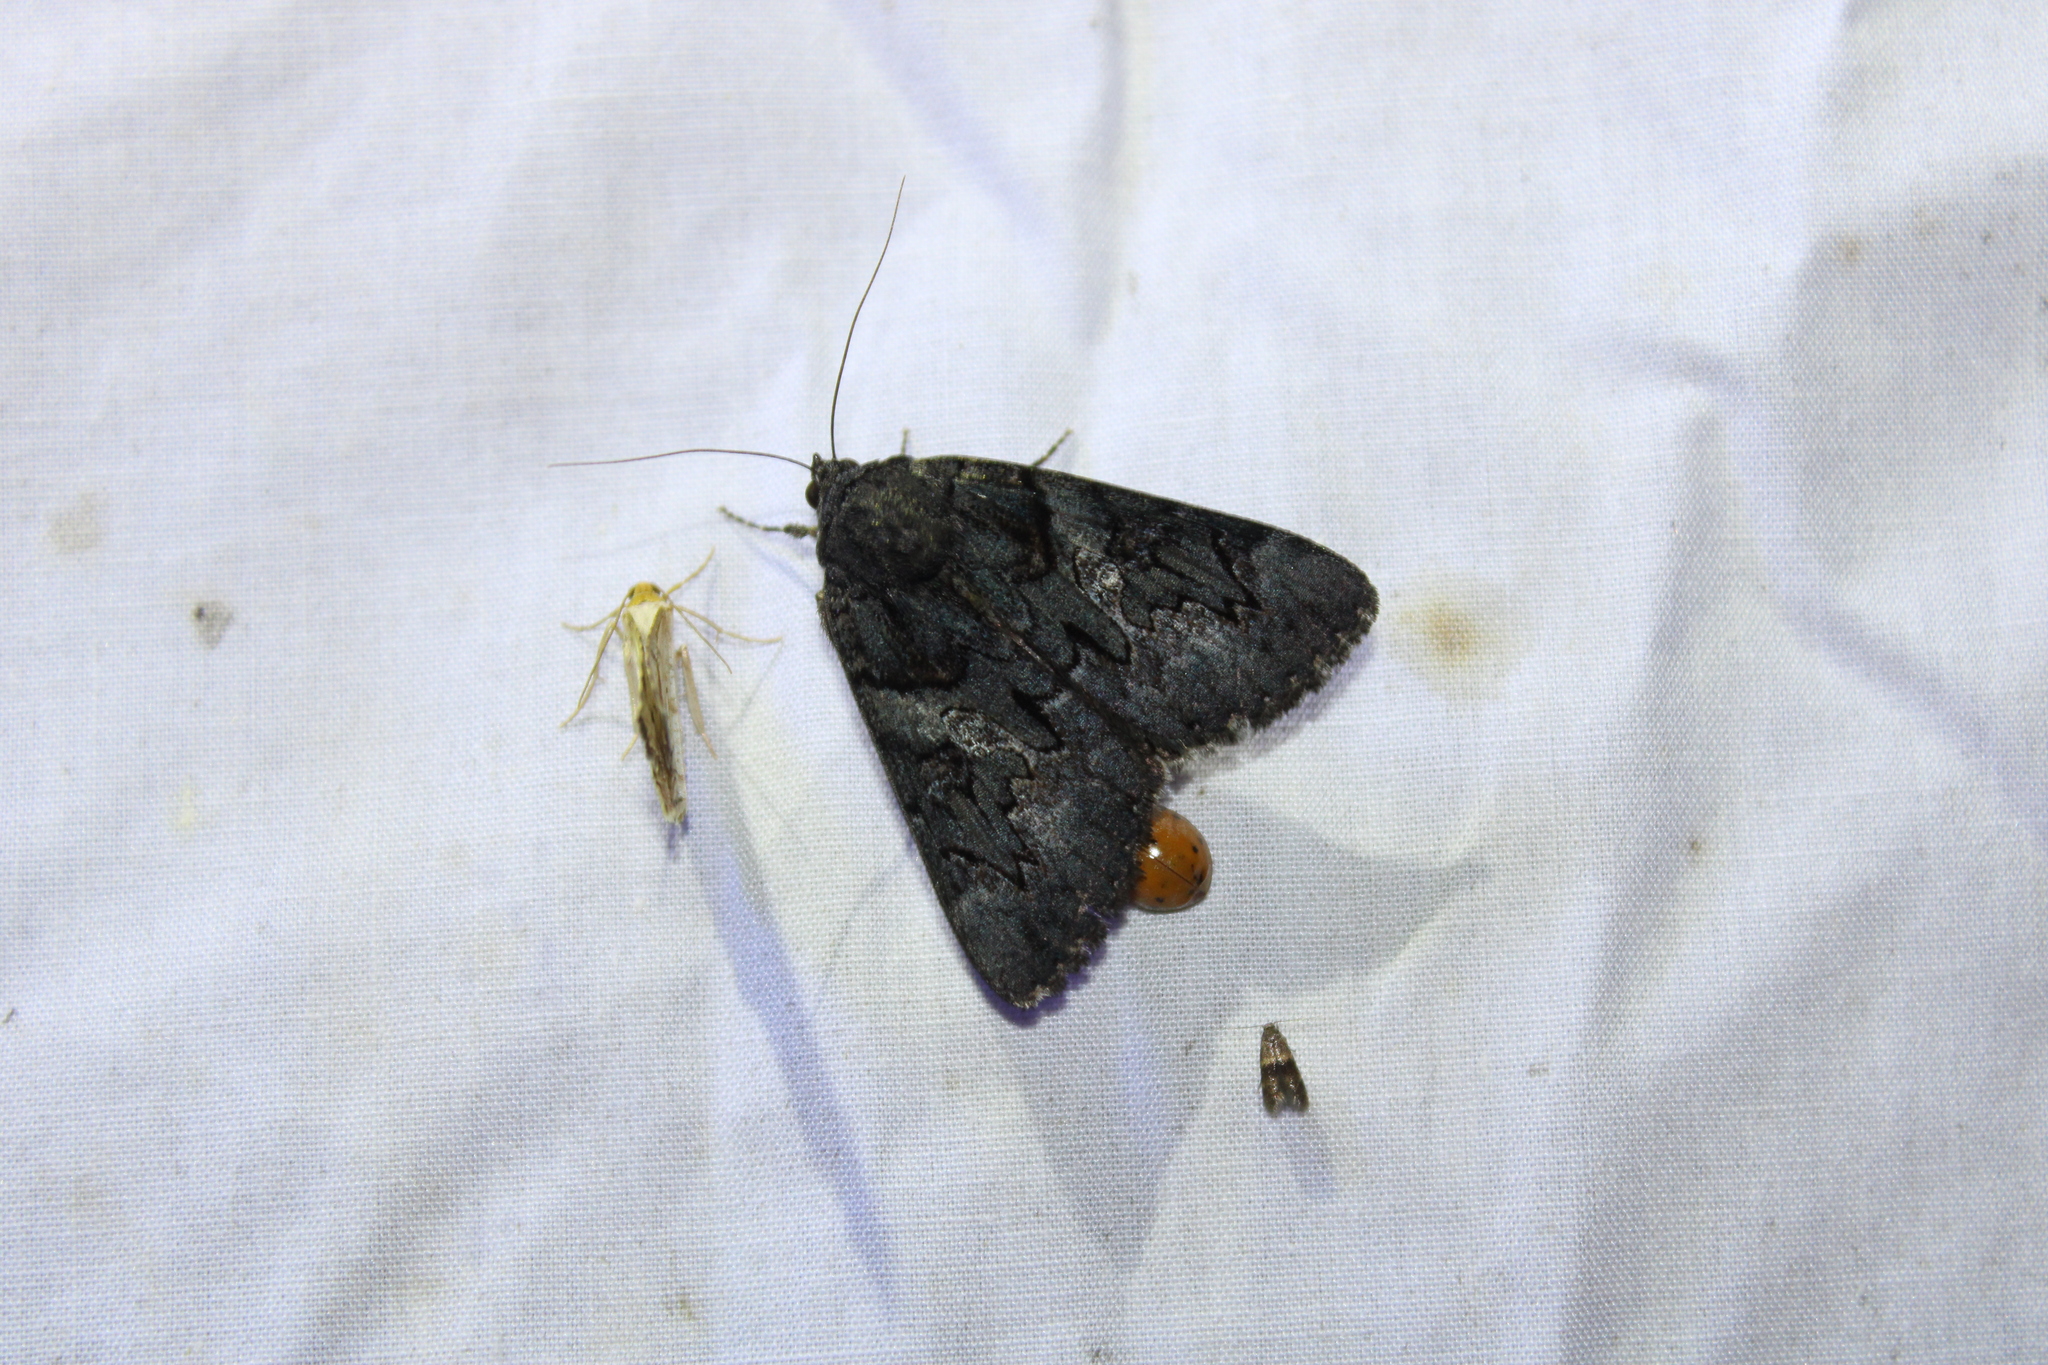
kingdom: Animalia
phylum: Arthropoda
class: Insecta
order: Lepidoptera
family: Erebidae
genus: Catocala
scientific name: Catocala antinympha
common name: Sweetfern underwing
